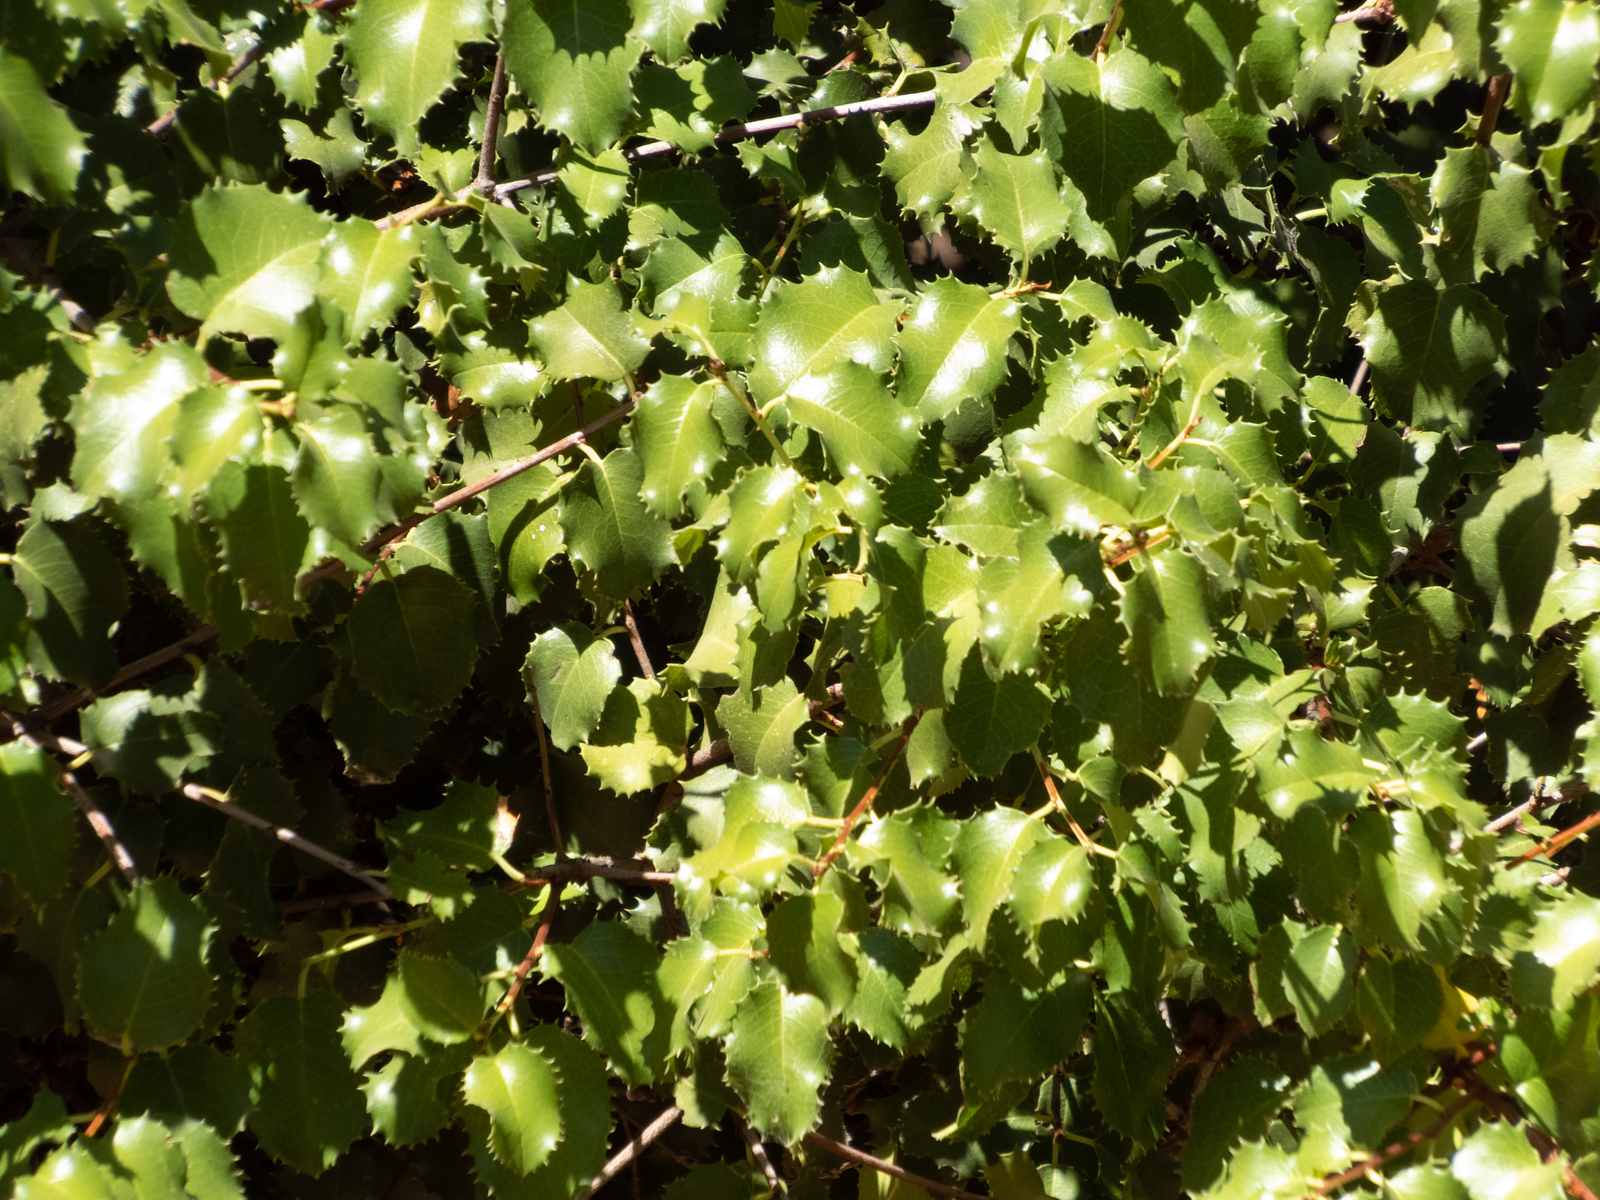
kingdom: Plantae
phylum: Tracheophyta
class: Magnoliopsida
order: Rosales
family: Rosaceae
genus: Prunus
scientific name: Prunus ilicifolia
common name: Hollyleaf cherry
